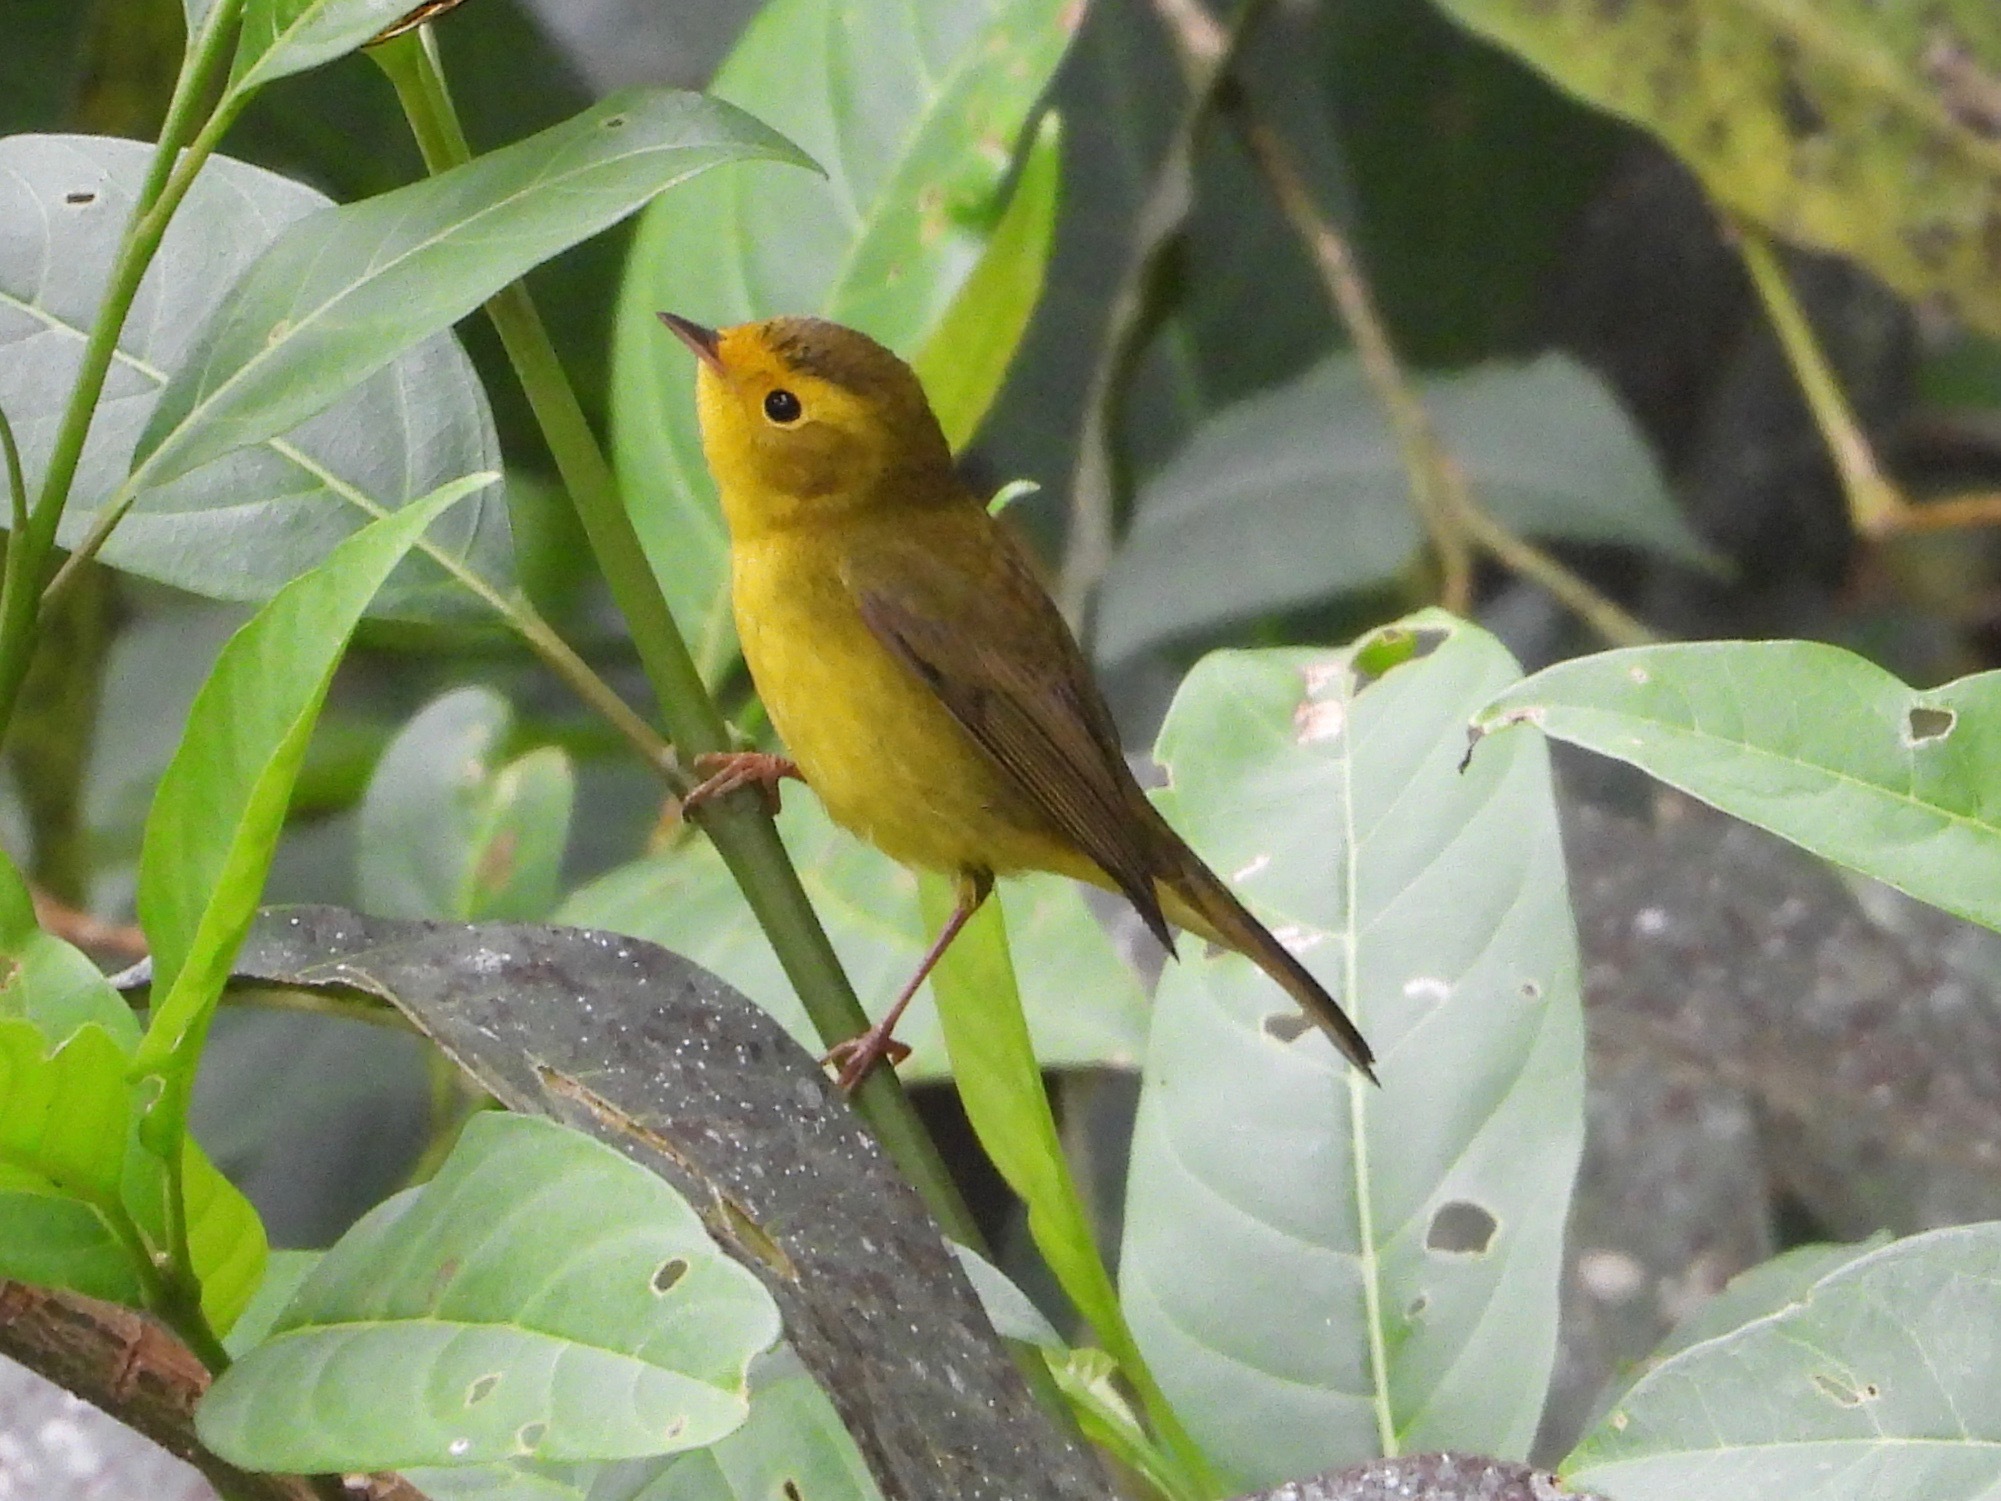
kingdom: Animalia
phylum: Chordata
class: Aves
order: Passeriformes
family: Parulidae
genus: Cardellina
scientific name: Cardellina pusilla
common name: Wilson's warbler
